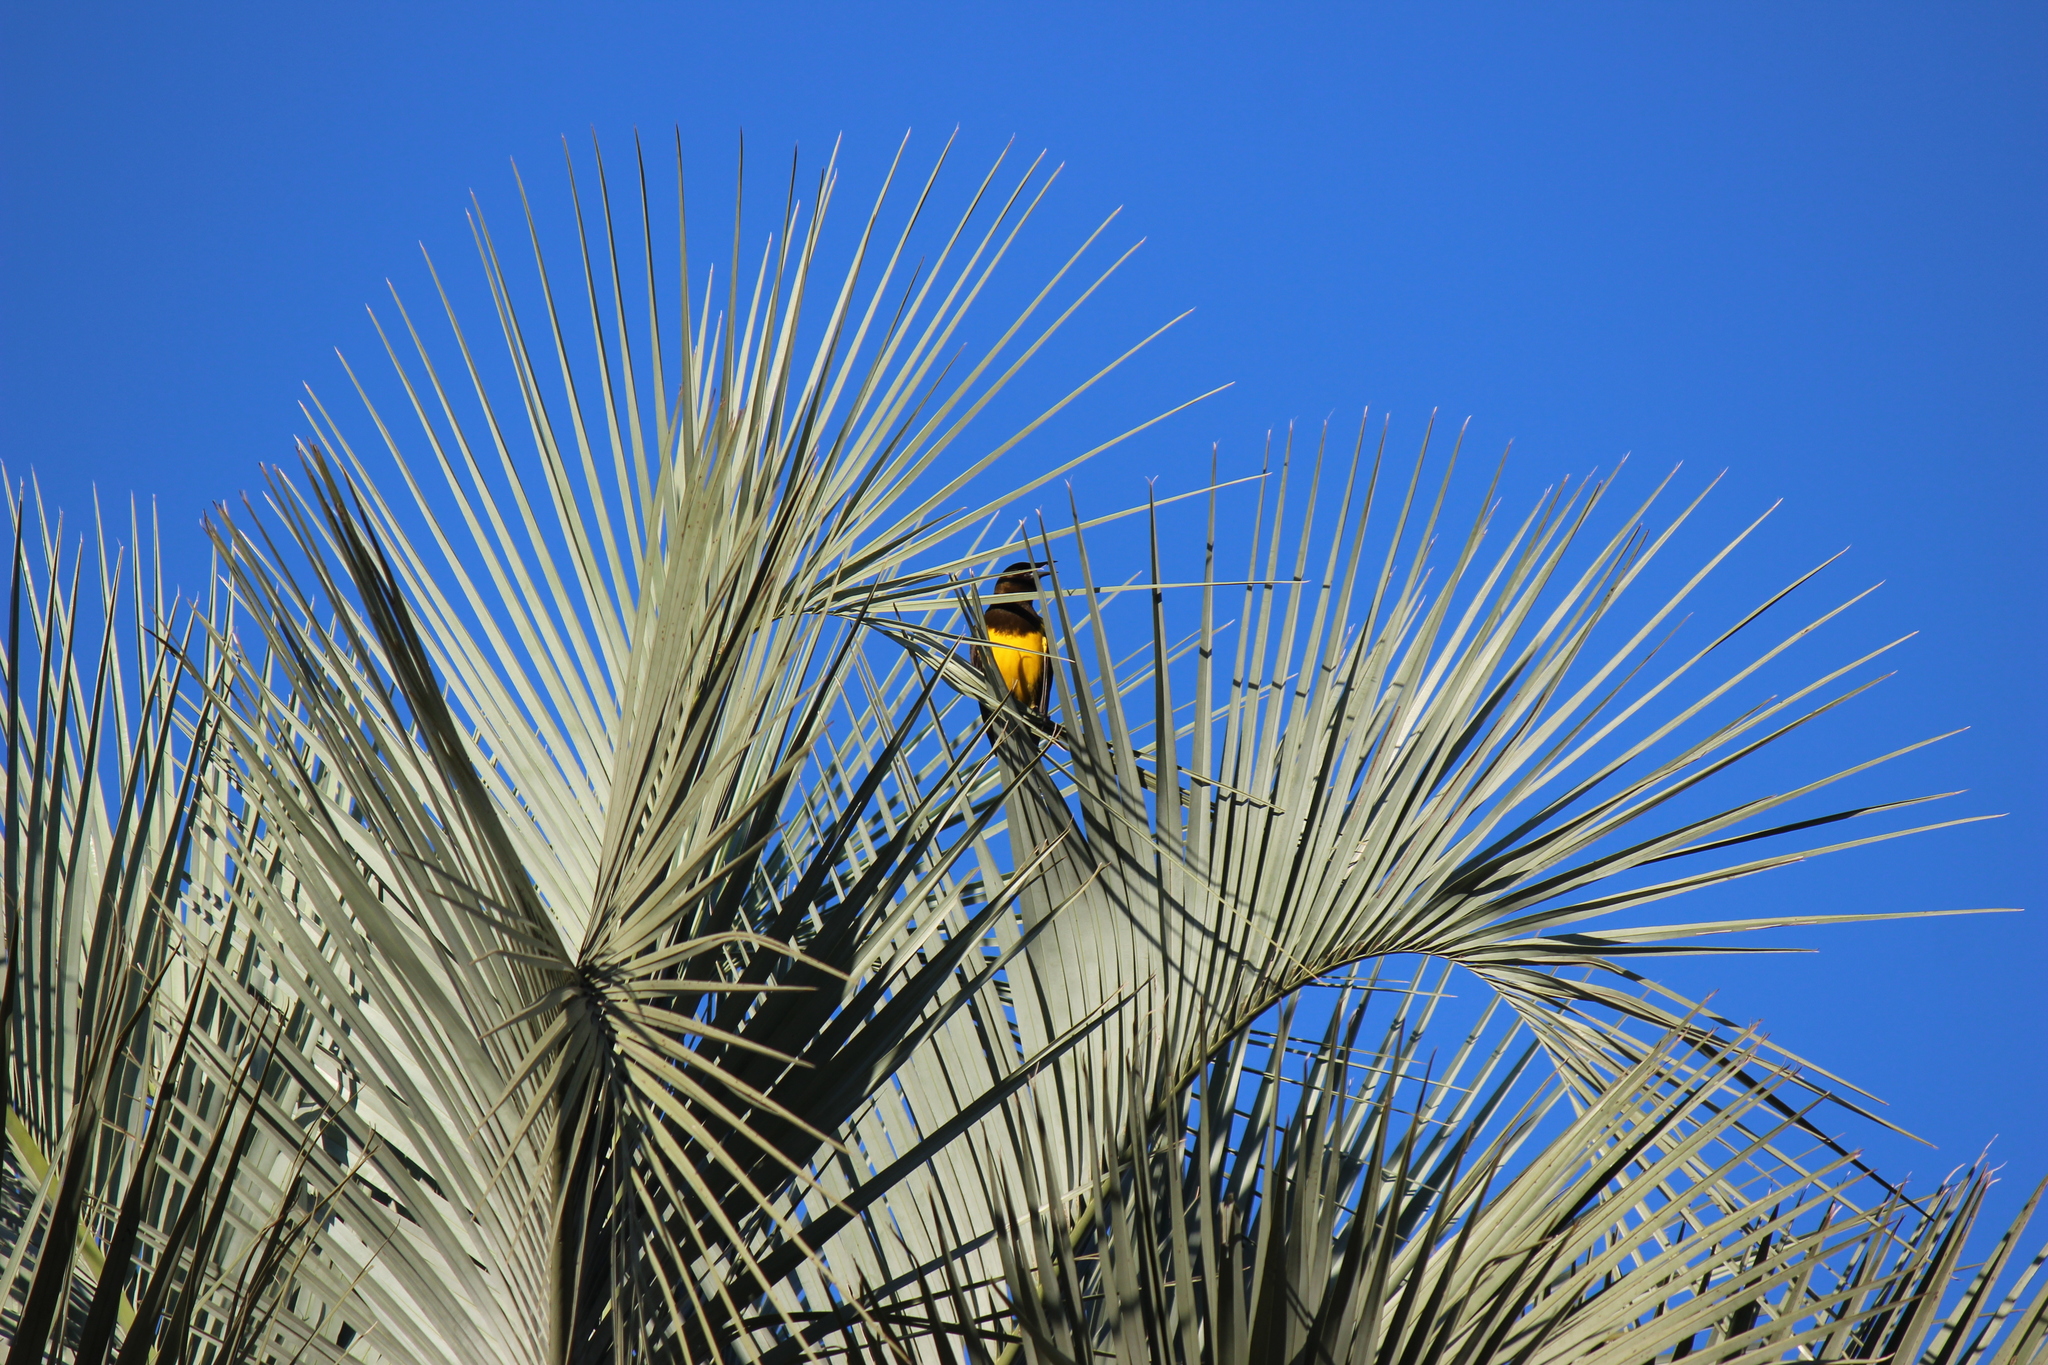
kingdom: Animalia
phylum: Chordata
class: Aves
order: Passeriformes
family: Icteridae
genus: Pseudoleistes
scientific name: Pseudoleistes virescens
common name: Brown-and-yellow marshbird
